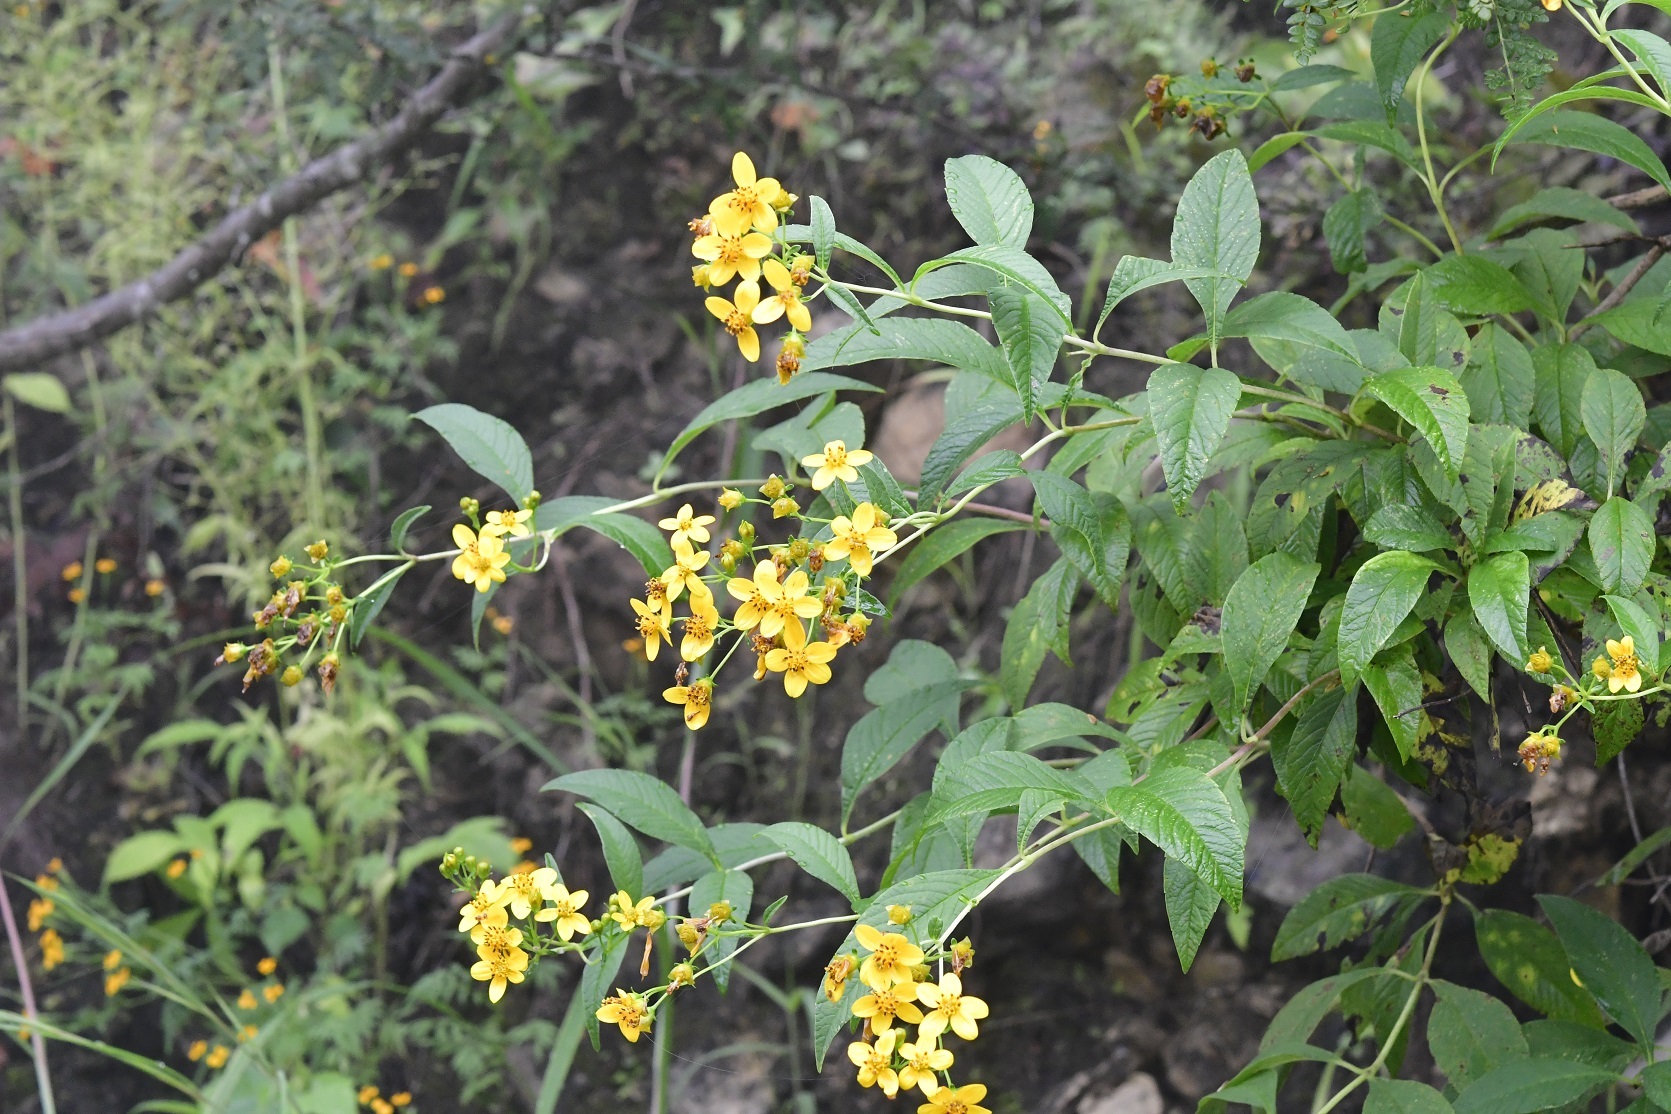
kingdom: Plantae
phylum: Tracheophyta
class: Magnoliopsida
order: Asterales
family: Asteraceae
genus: Electranthera
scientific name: Electranthera mutica
